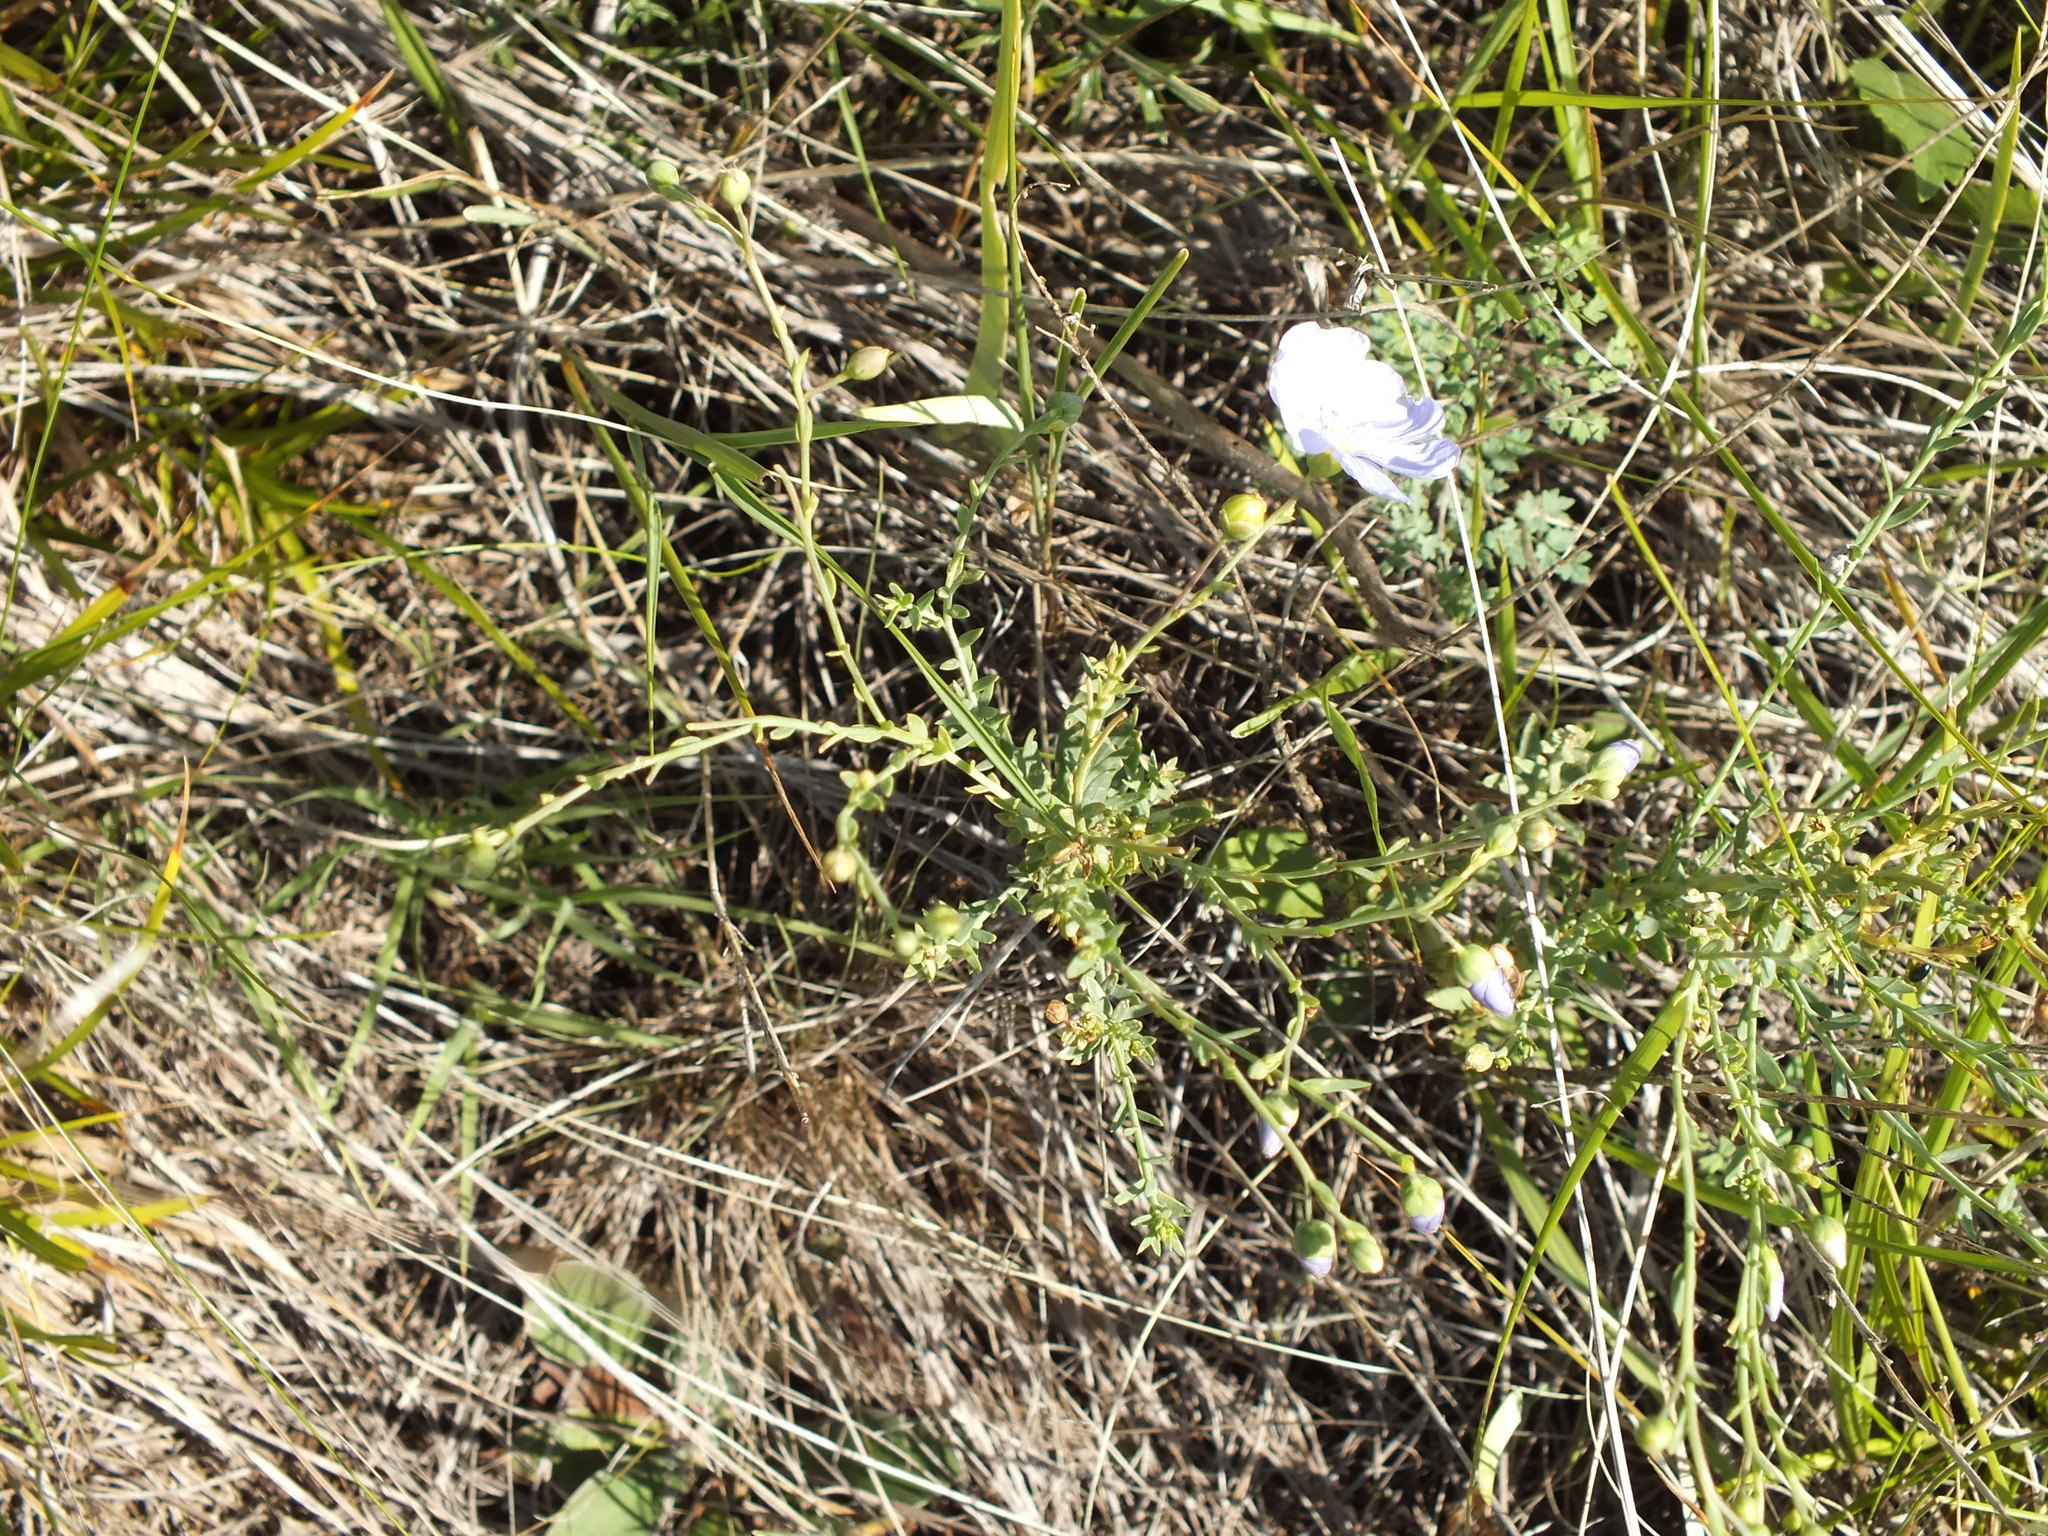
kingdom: Plantae
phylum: Tracheophyta
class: Magnoliopsida
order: Malpighiales
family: Linaceae
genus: Linum
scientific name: Linum perenne
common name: Blue flax
